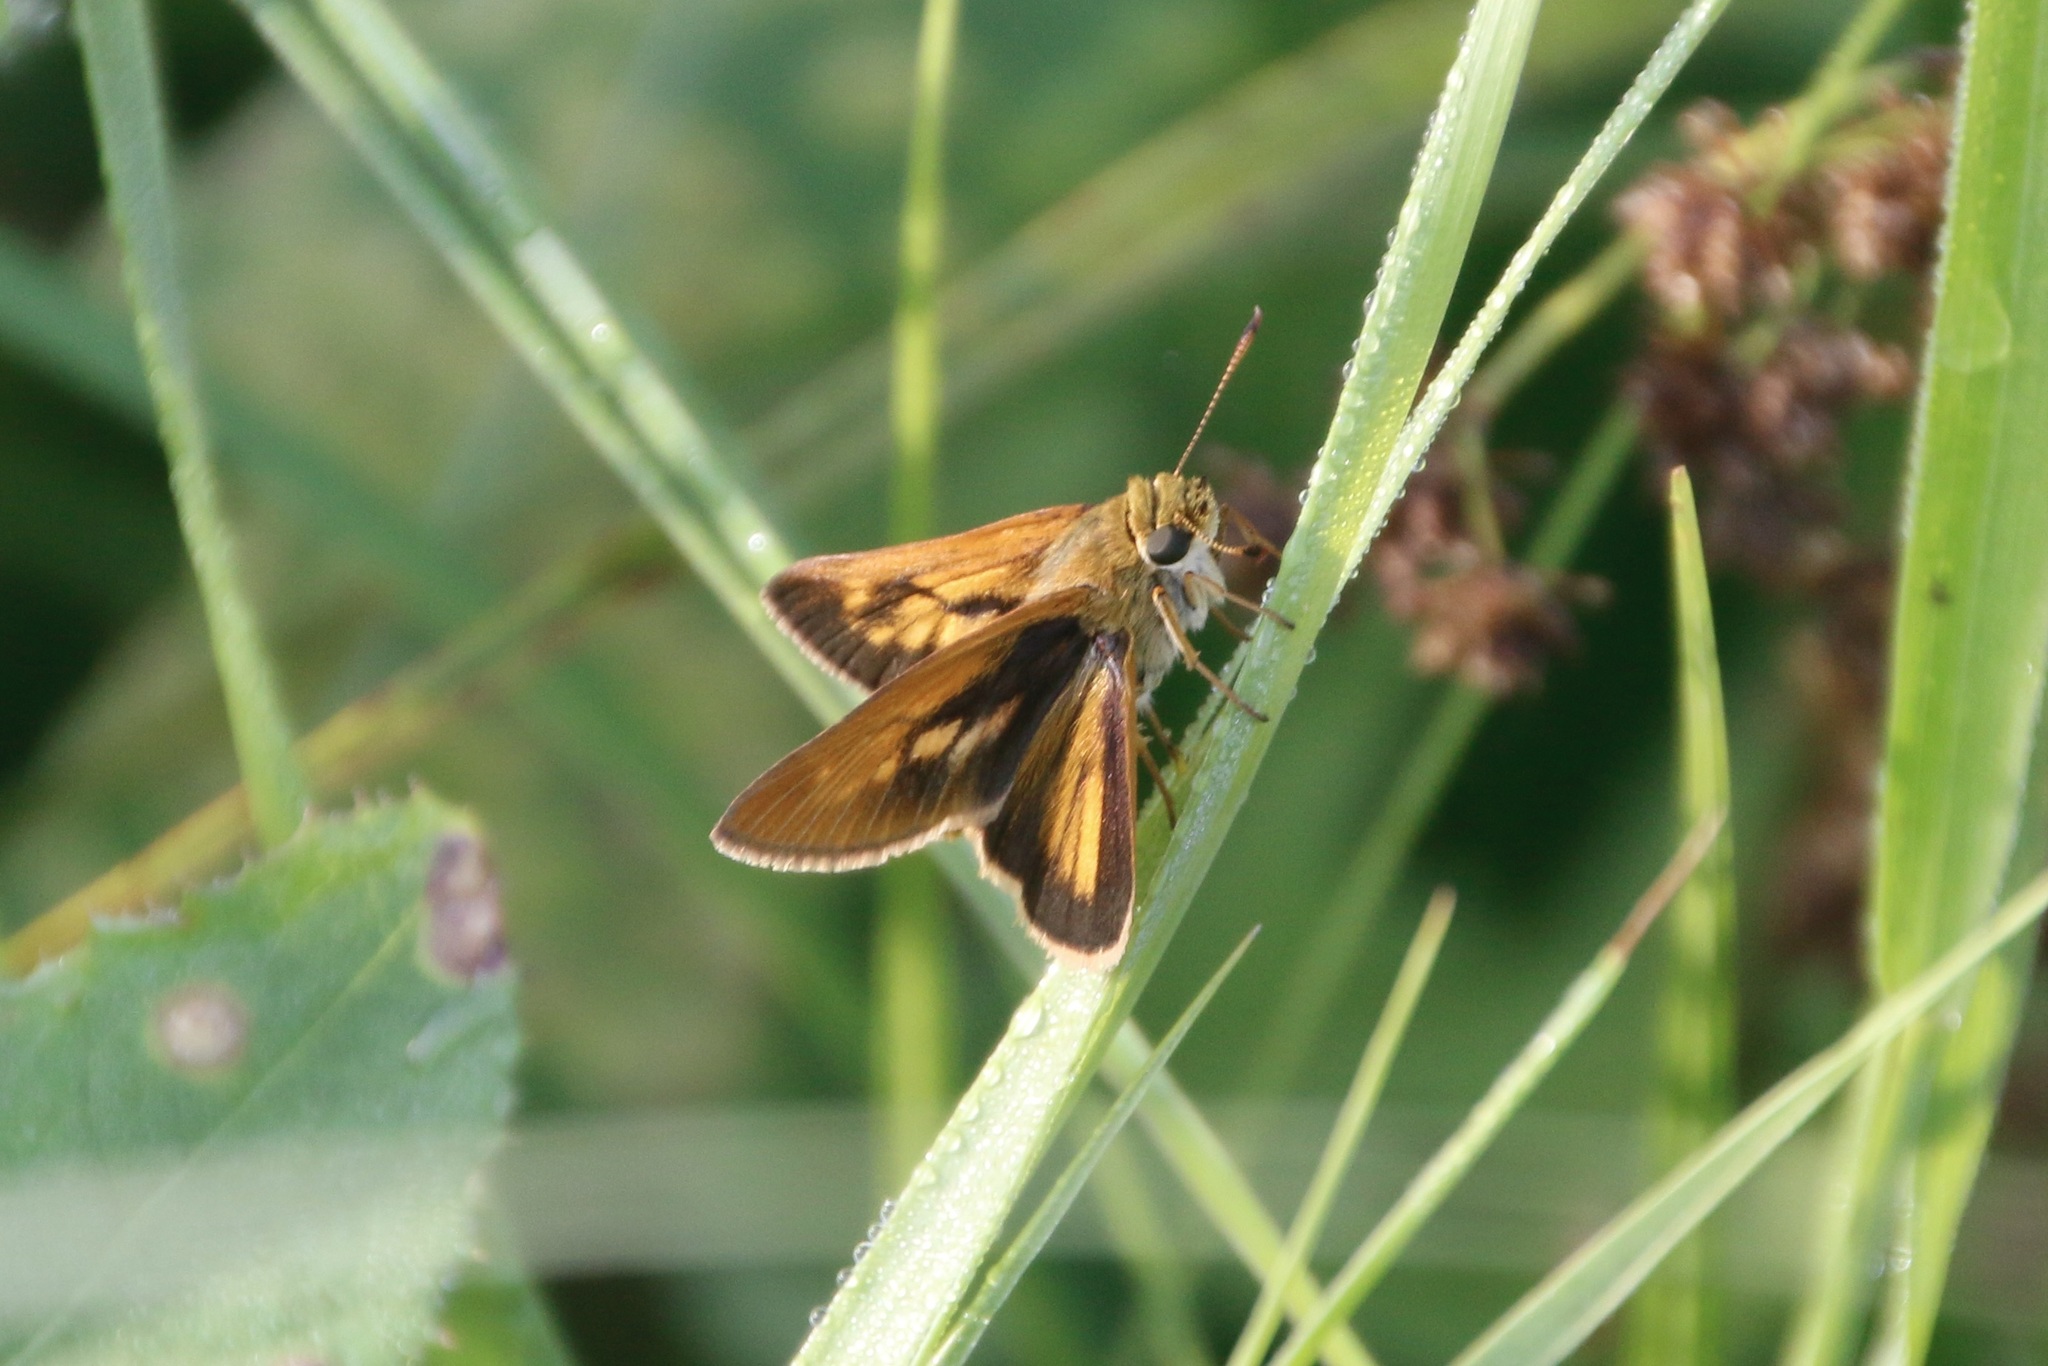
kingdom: Animalia
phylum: Arthropoda
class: Insecta
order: Lepidoptera
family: Hesperiidae
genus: Euphyes
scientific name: Euphyes dion
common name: Dion skipper
